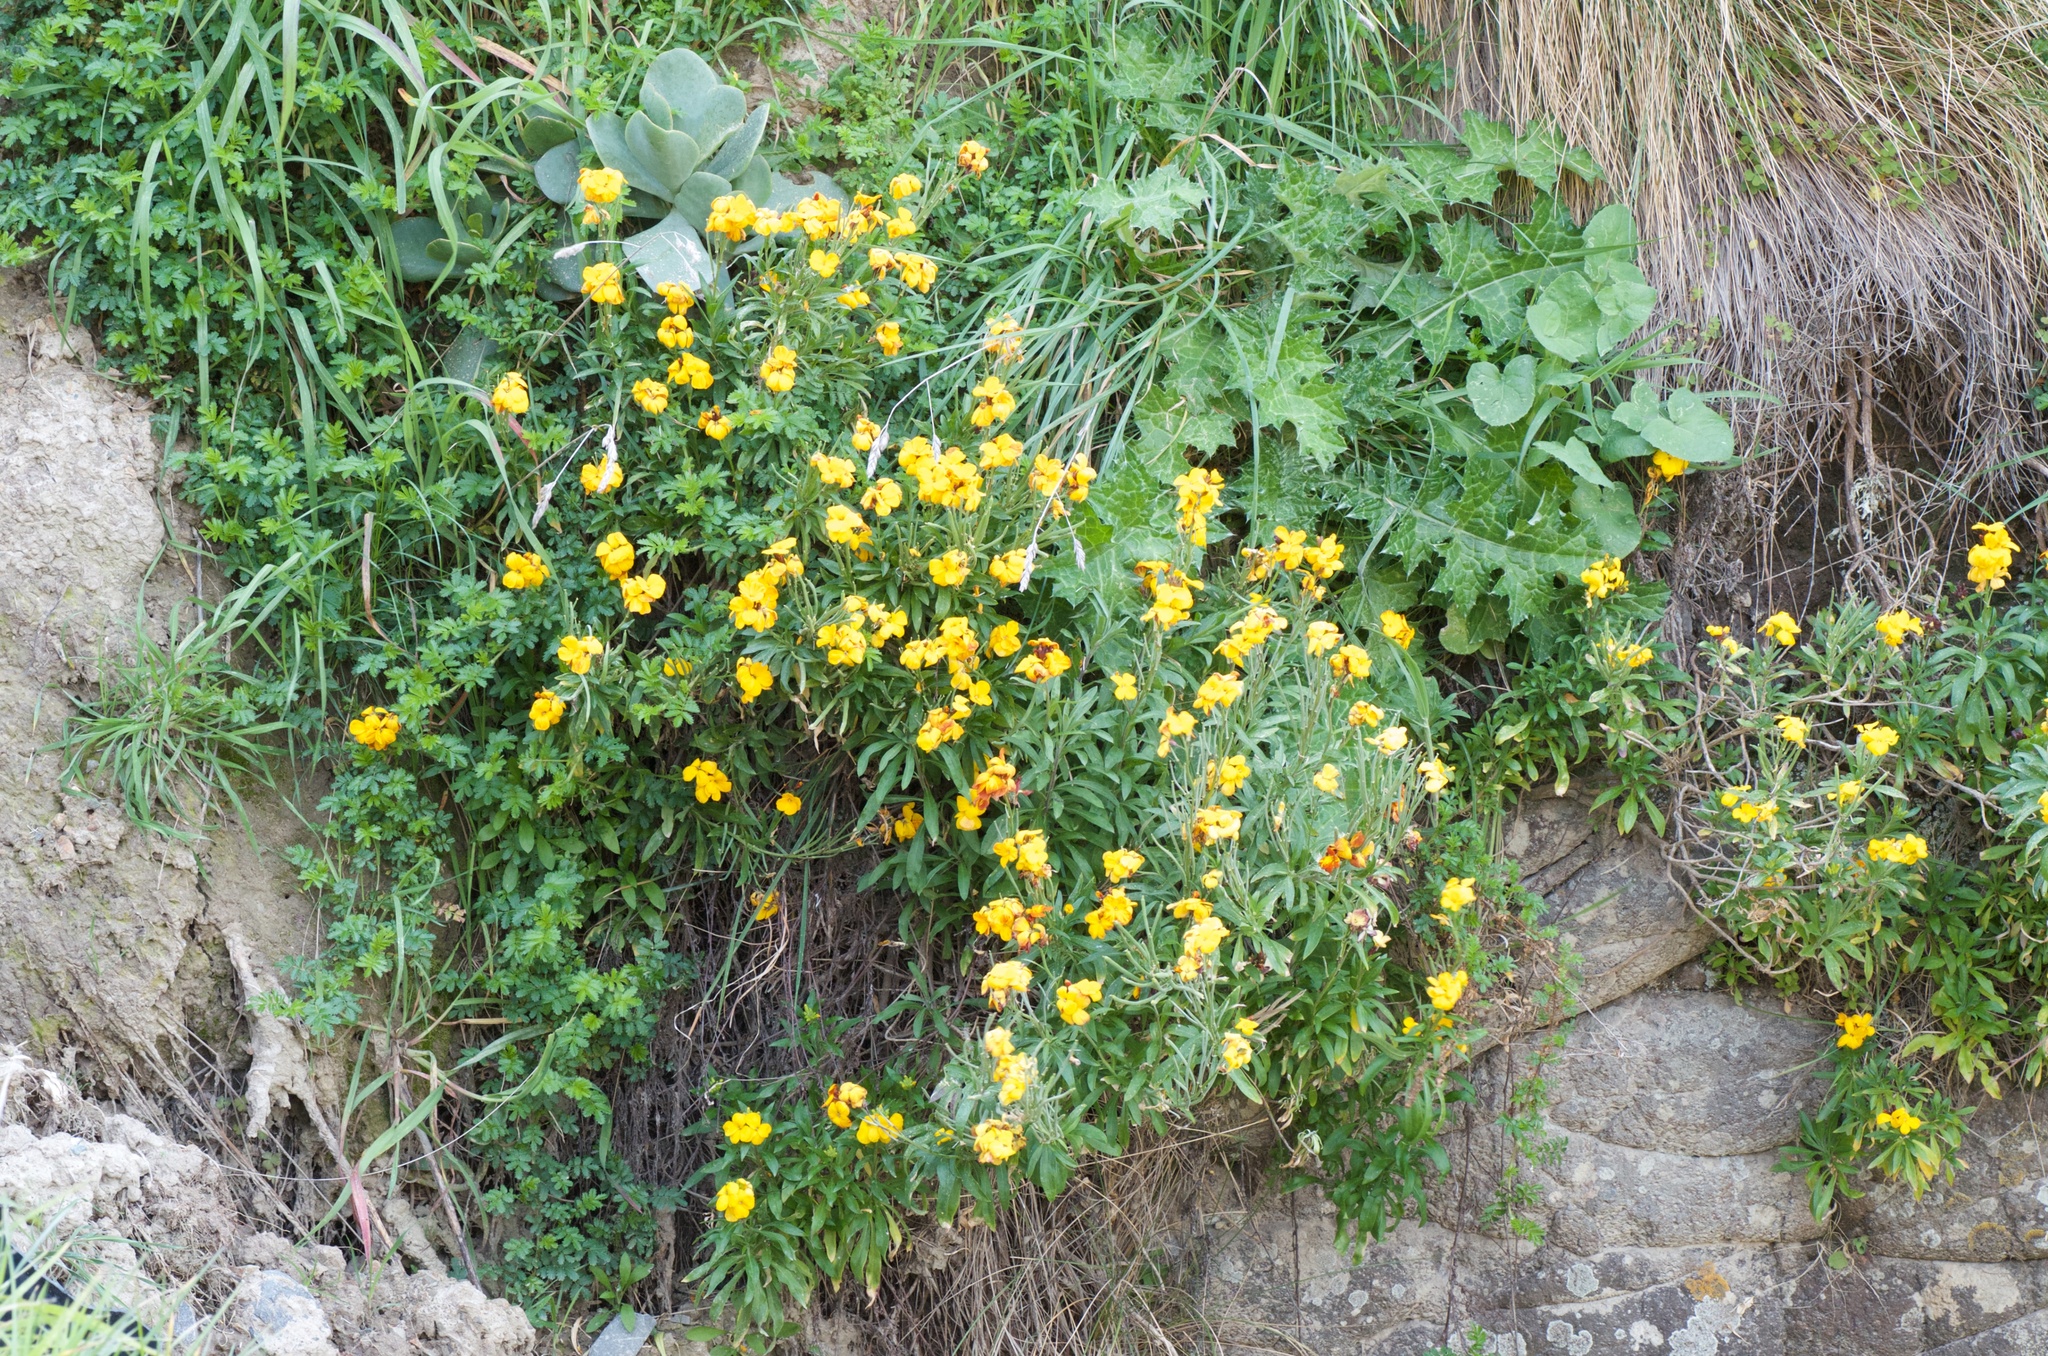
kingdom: Plantae
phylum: Tracheophyta
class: Magnoliopsida
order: Brassicales
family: Brassicaceae
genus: Erysimum
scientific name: Erysimum cheiri
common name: Wallflower
